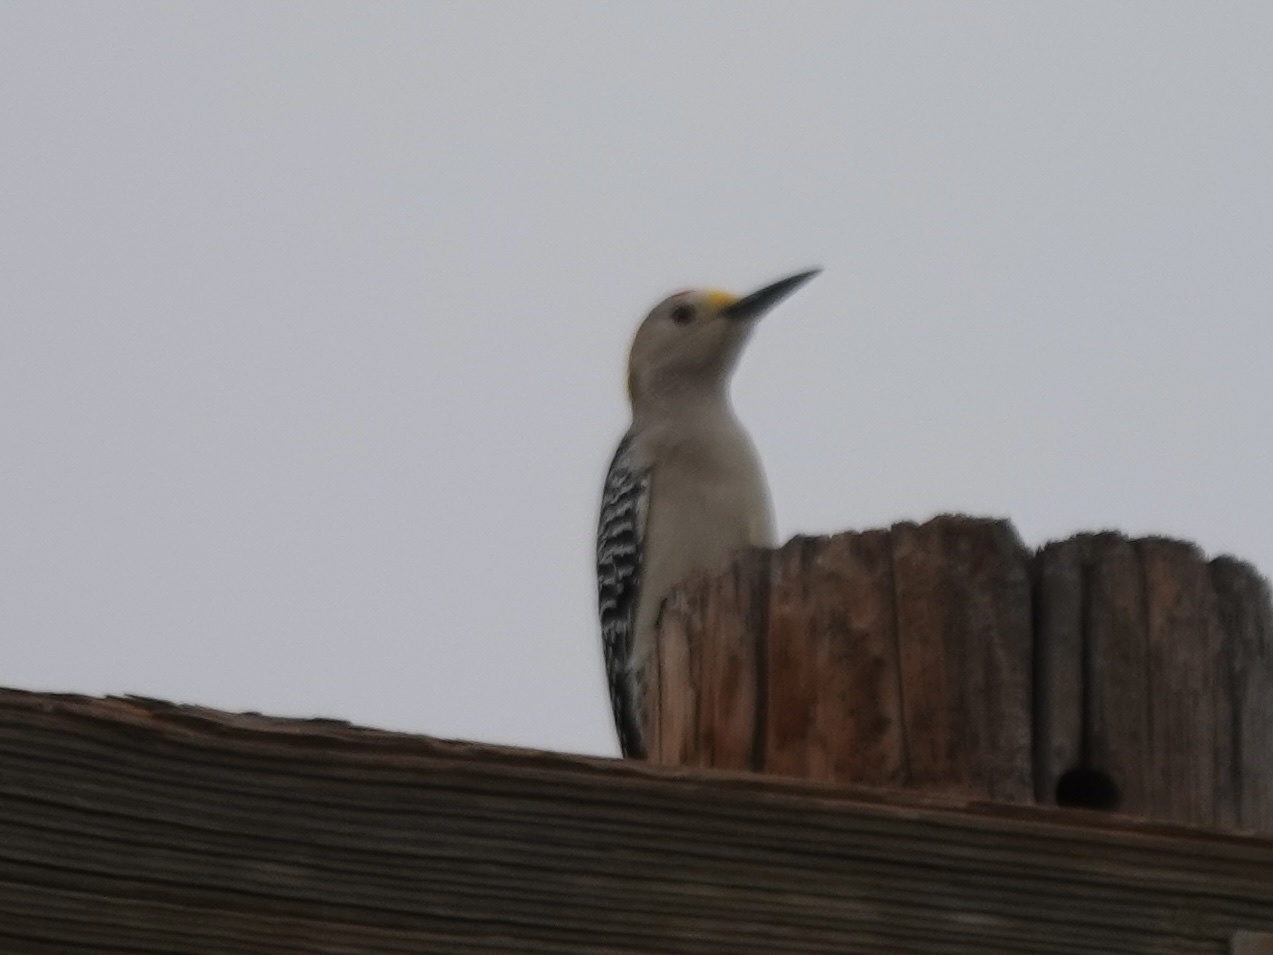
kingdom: Animalia
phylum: Chordata
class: Aves
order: Piciformes
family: Picidae
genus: Melanerpes
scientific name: Melanerpes aurifrons
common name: Golden-fronted woodpecker
